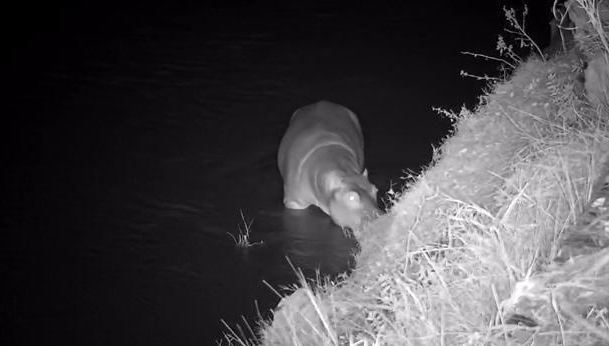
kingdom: Animalia
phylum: Chordata
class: Mammalia
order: Artiodactyla
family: Hippopotamidae
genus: Hippopotamus
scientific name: Hippopotamus amphibius
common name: Common hippopotamus
